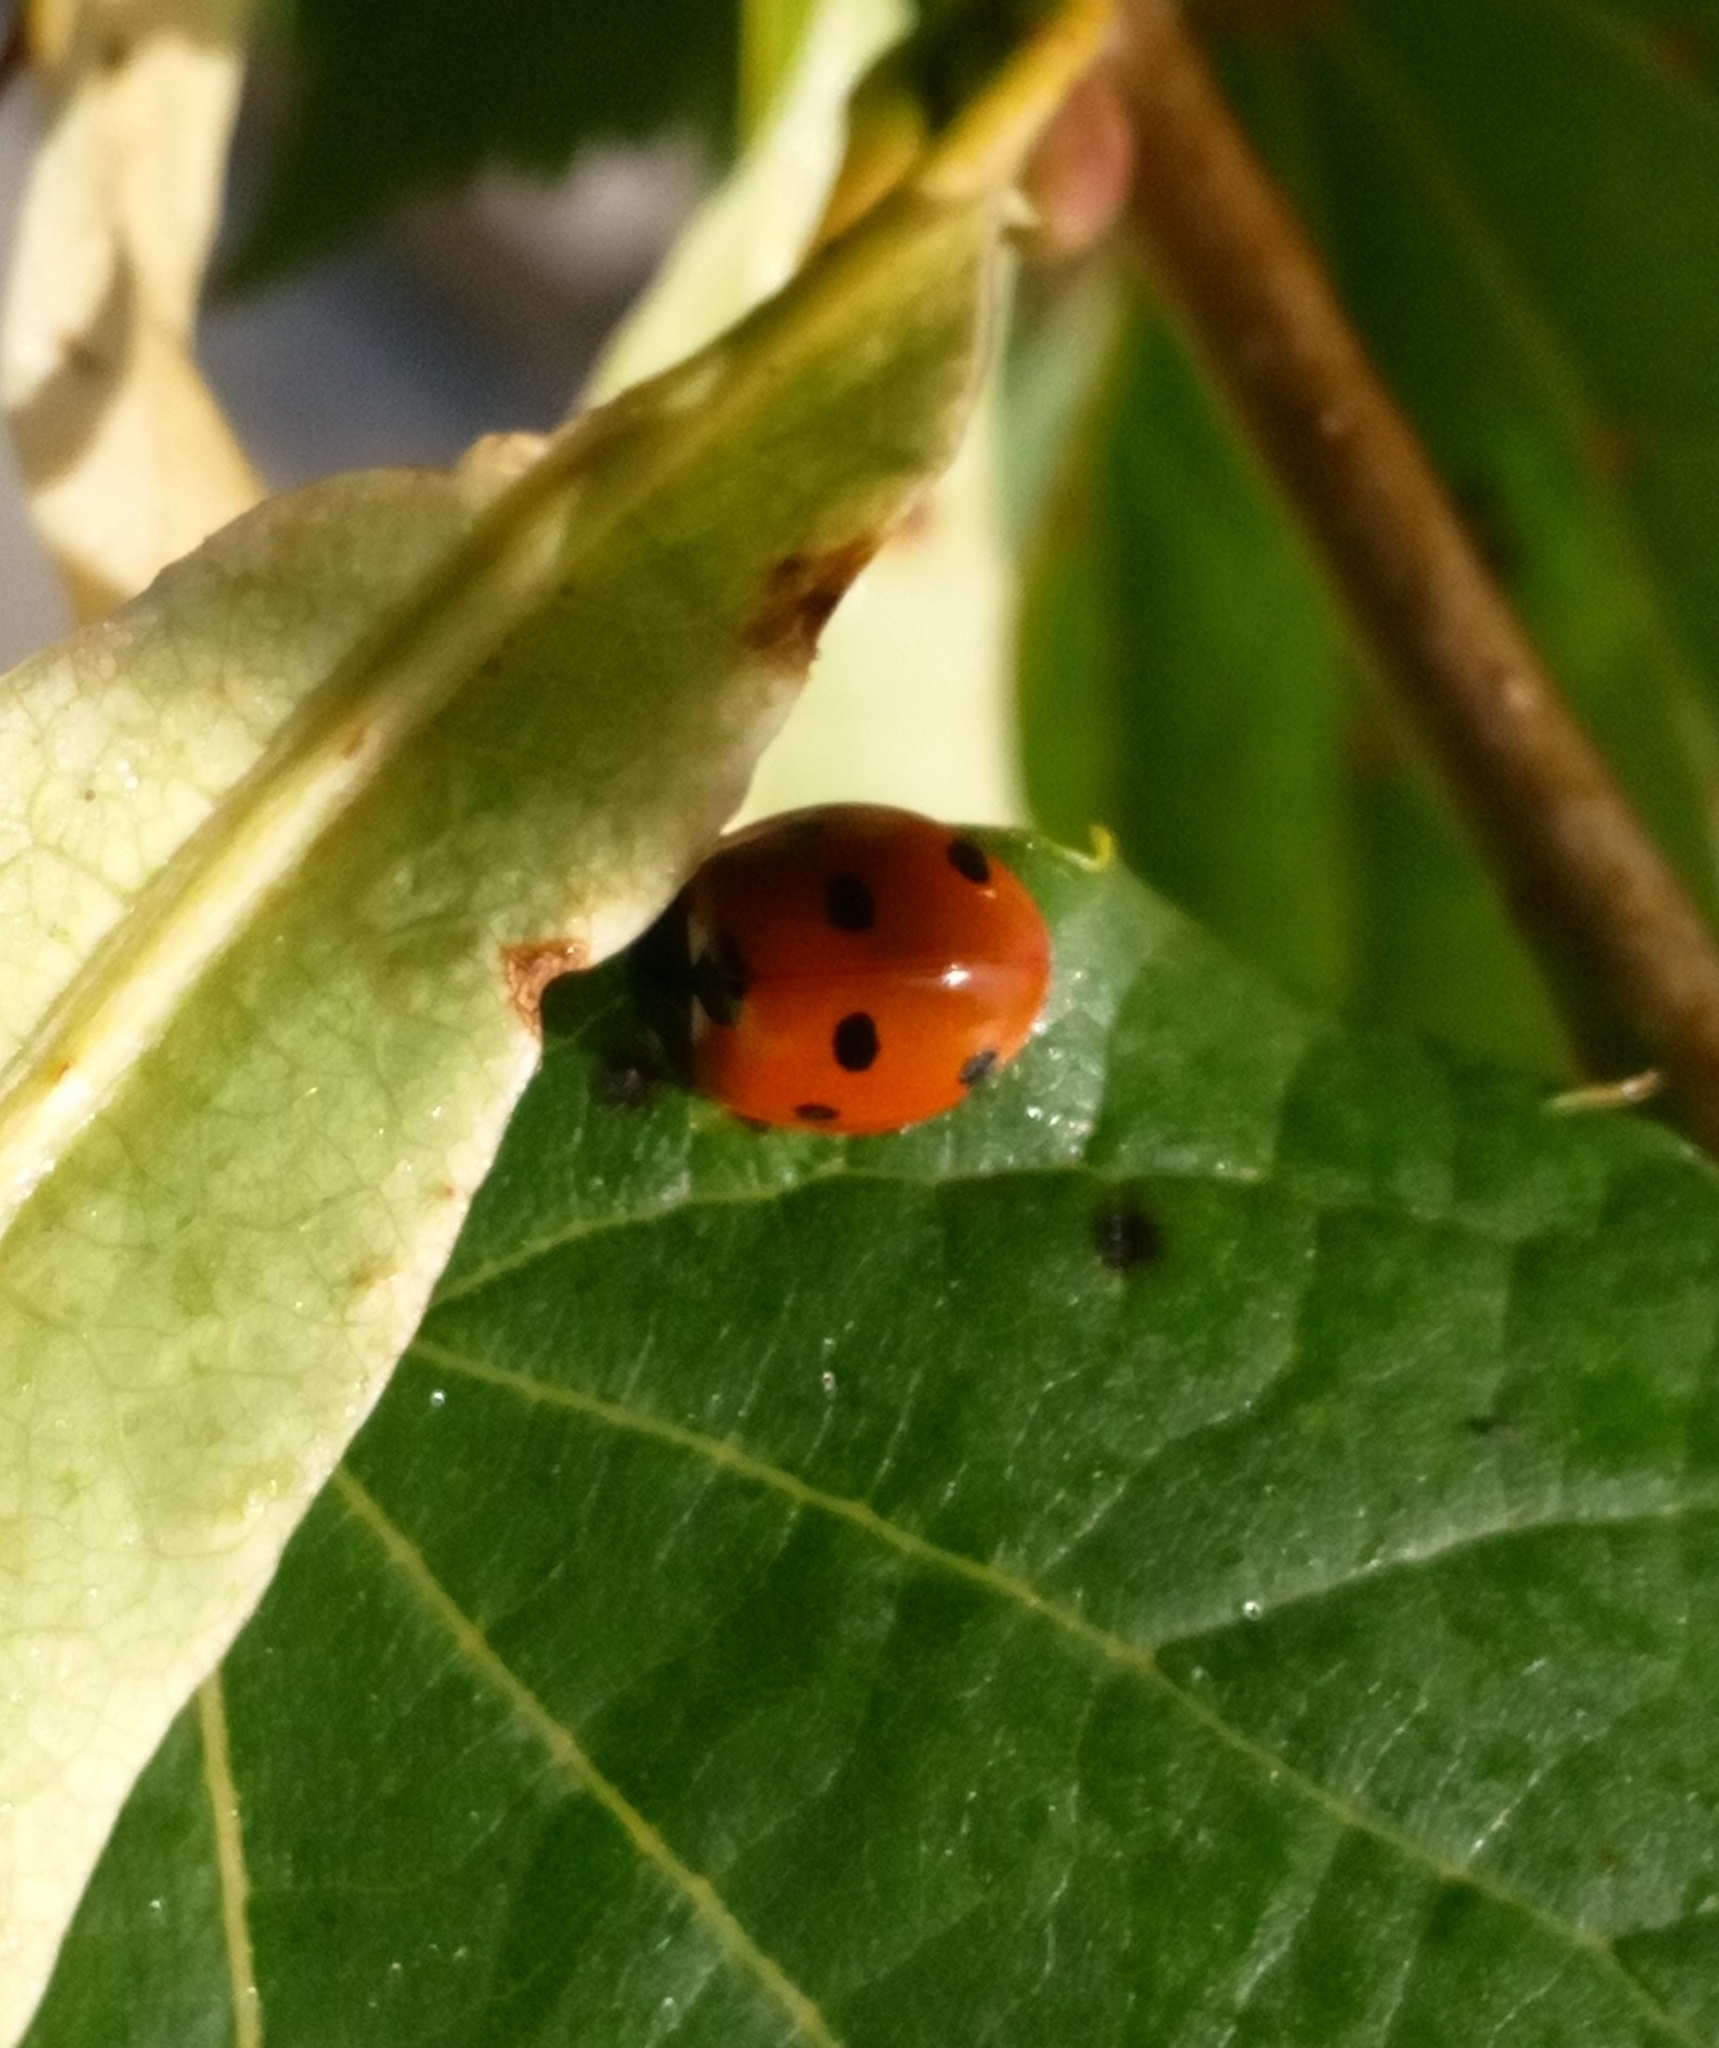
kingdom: Animalia
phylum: Arthropoda
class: Insecta
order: Coleoptera
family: Coccinellidae
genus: Coccinella
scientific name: Coccinella septempunctata
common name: Sevenspotted lady beetle
